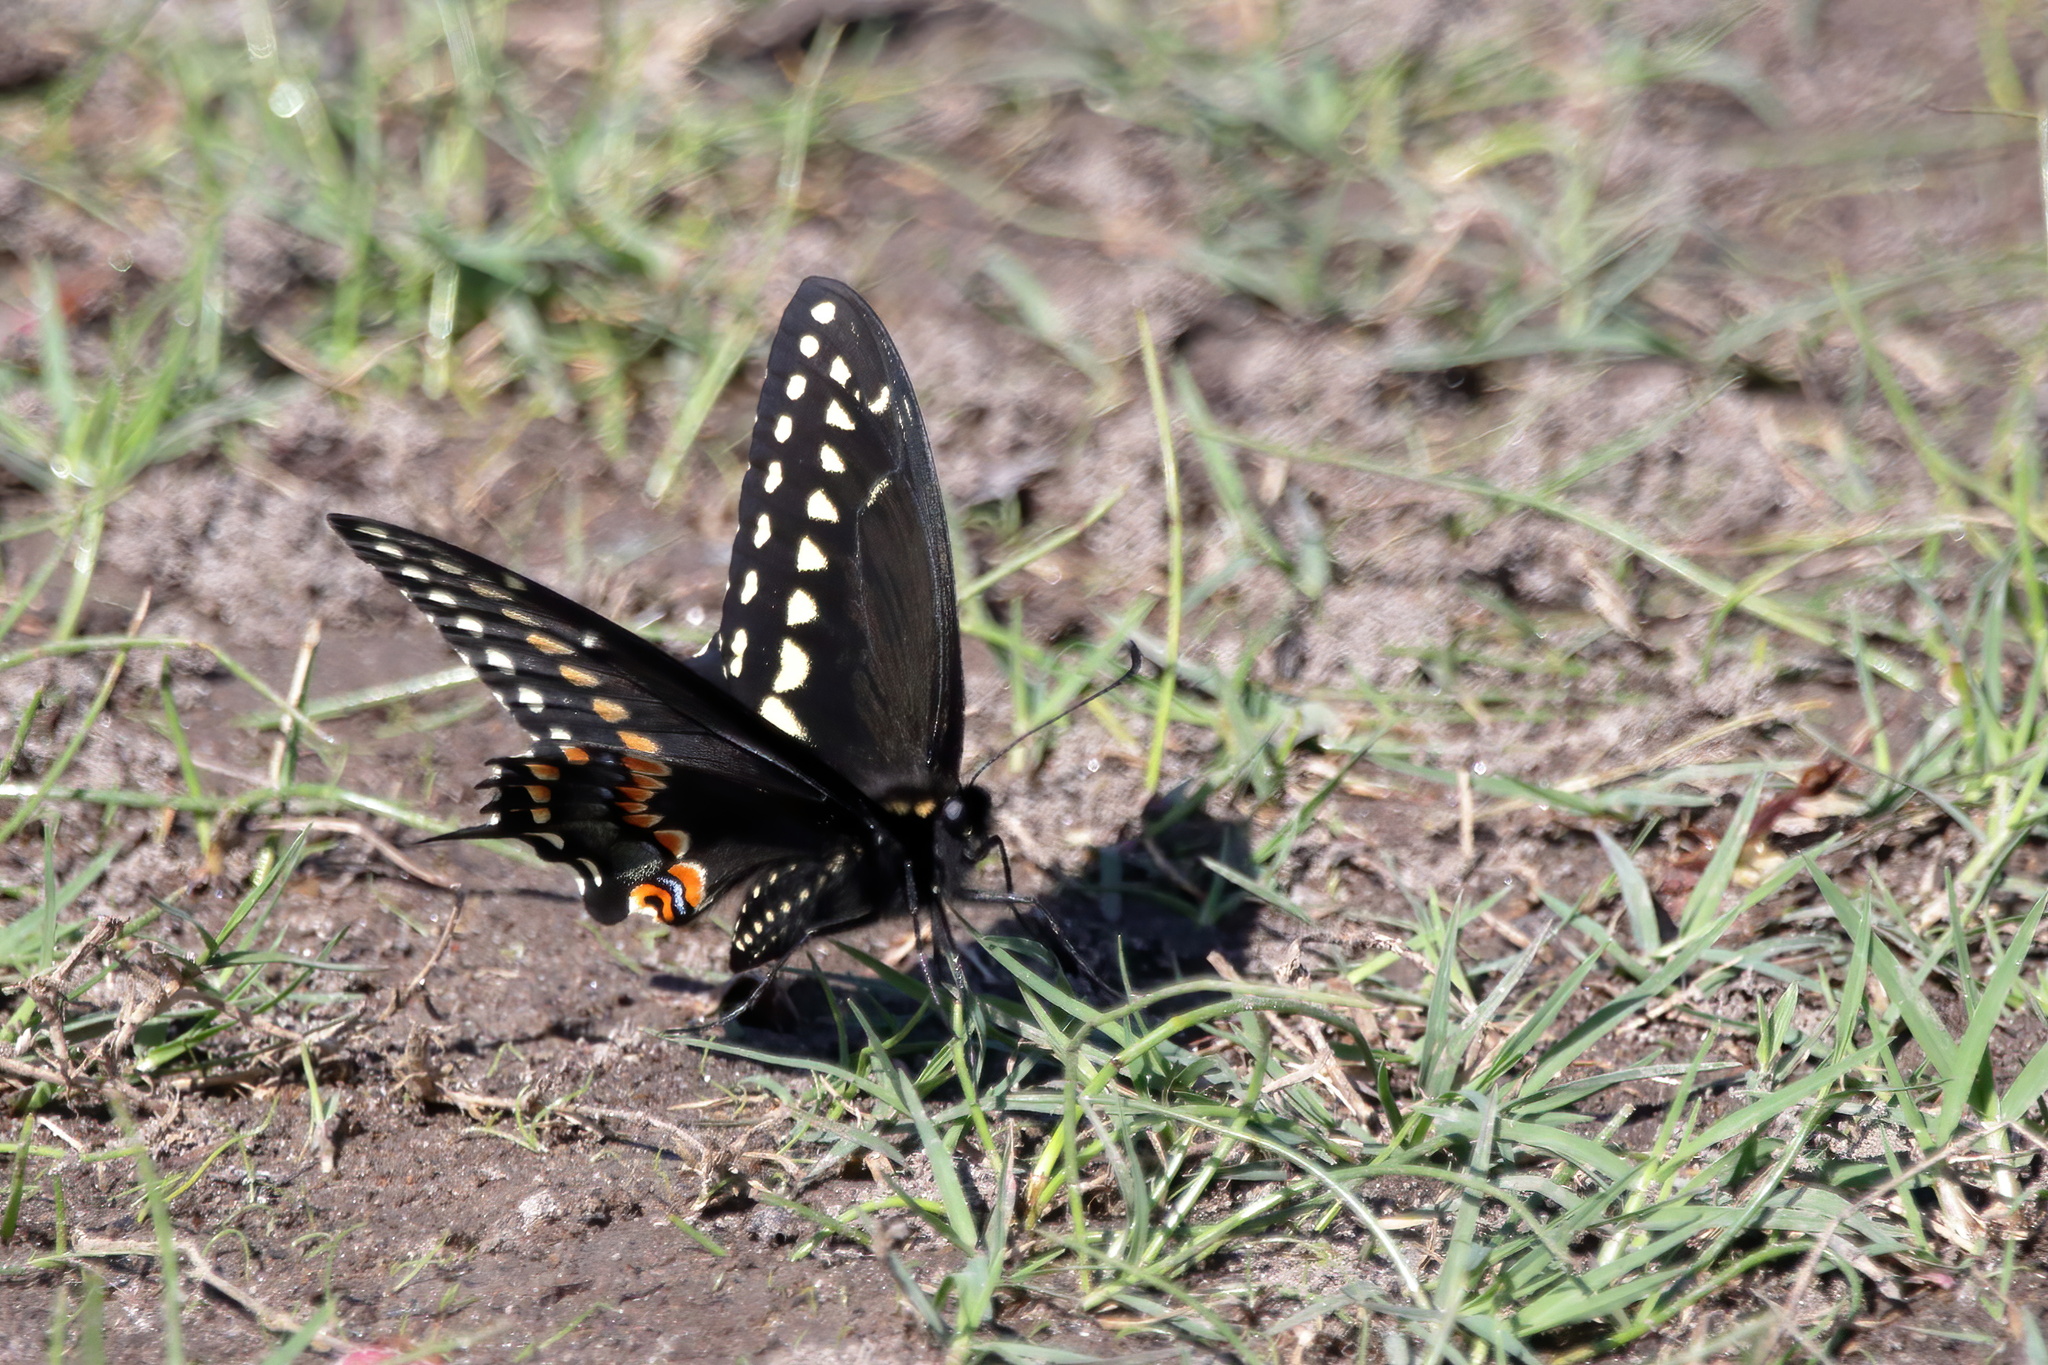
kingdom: Animalia
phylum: Arthropoda
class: Insecta
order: Lepidoptera
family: Papilionidae
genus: Papilio
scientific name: Papilio polyxenes
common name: Black swallowtail
